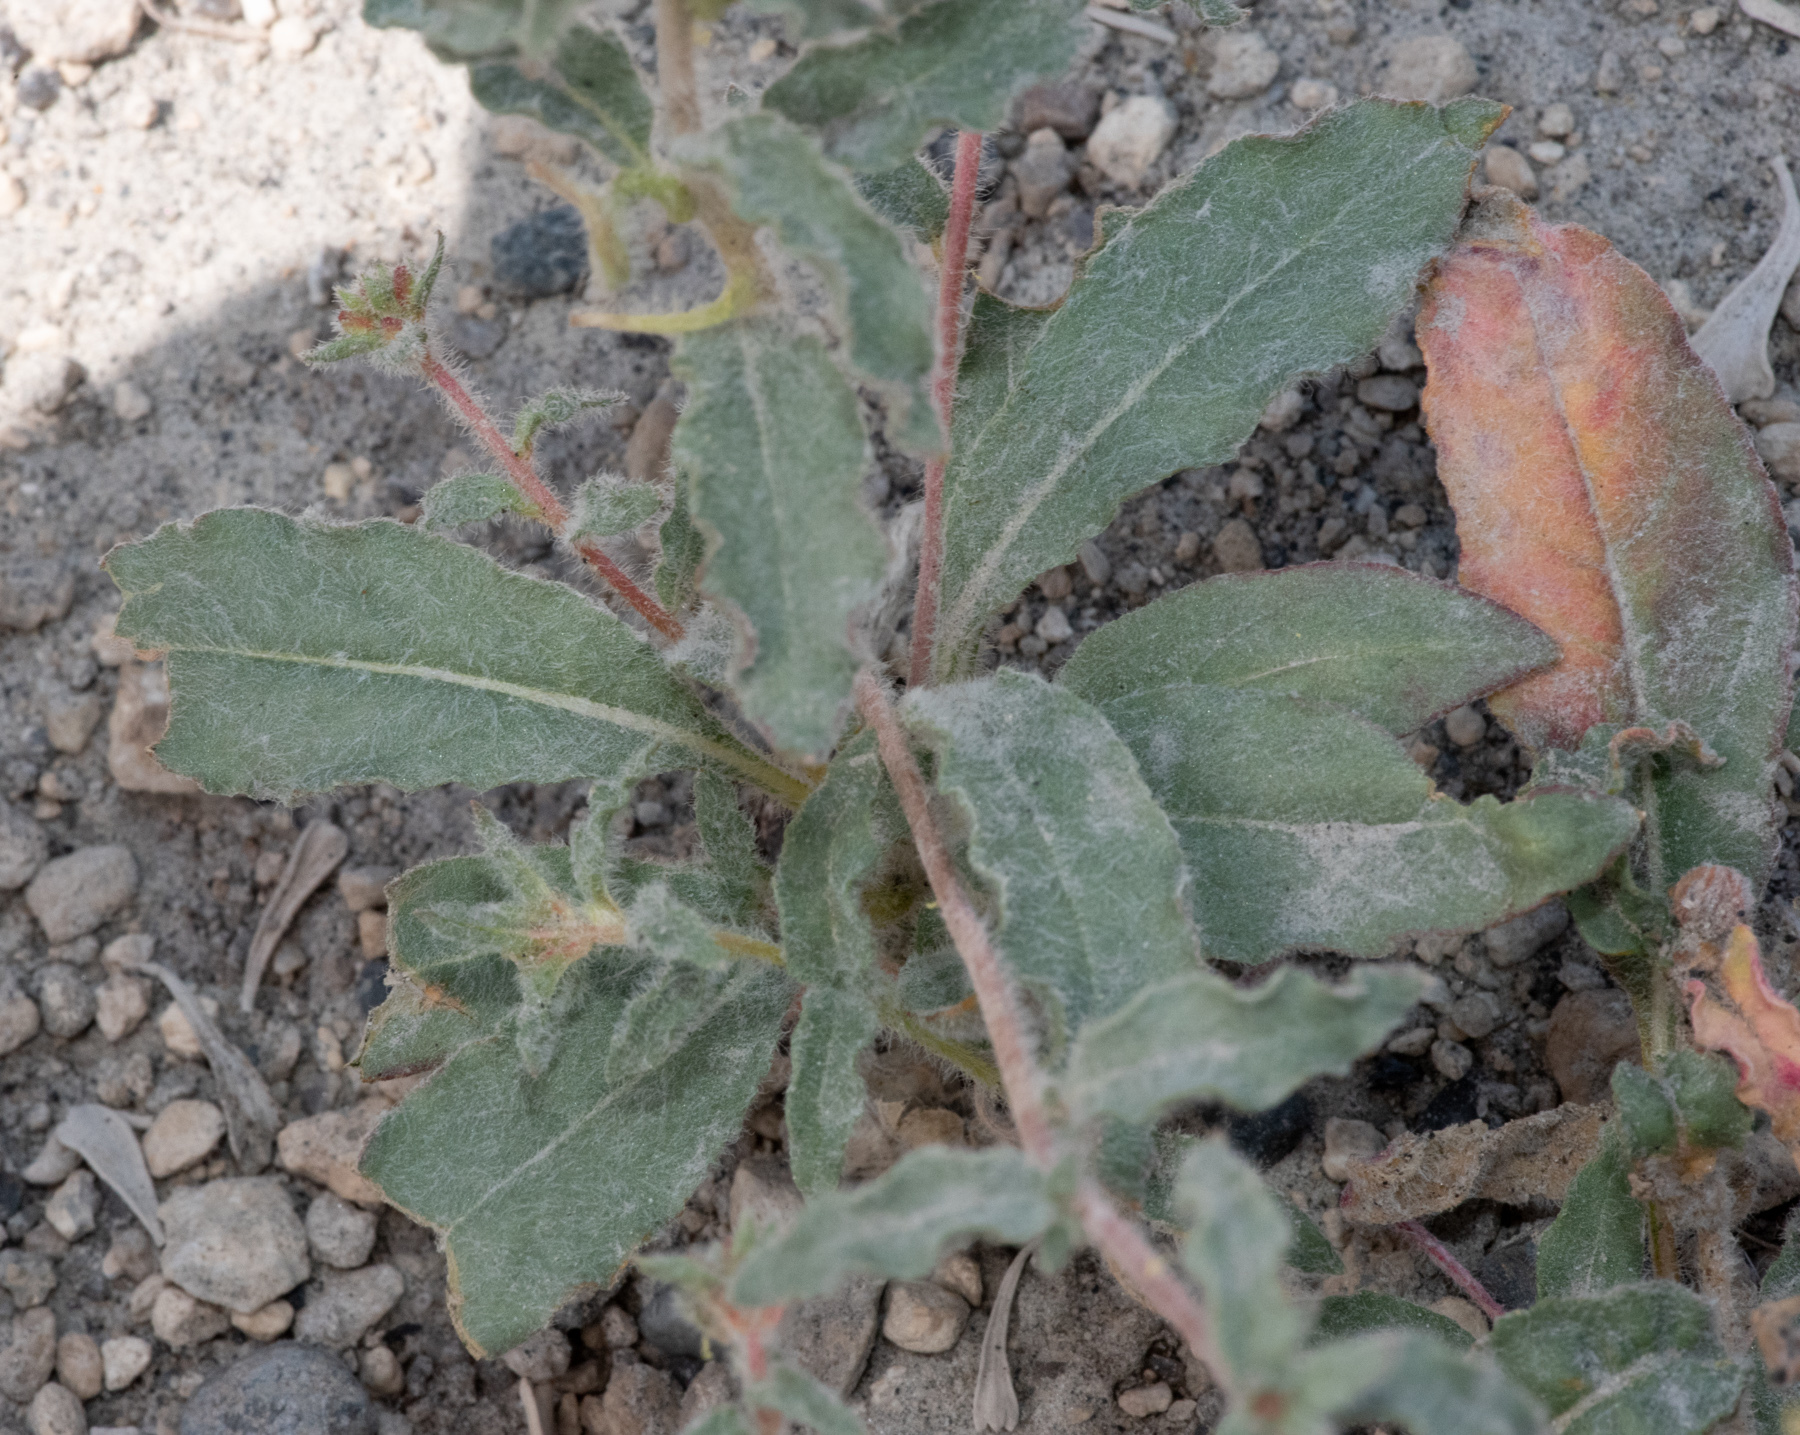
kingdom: Plantae
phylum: Tracheophyta
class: Magnoliopsida
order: Myrtales
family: Onagraceae
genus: Chylismia
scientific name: Chylismia claviformis
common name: Browneyes
